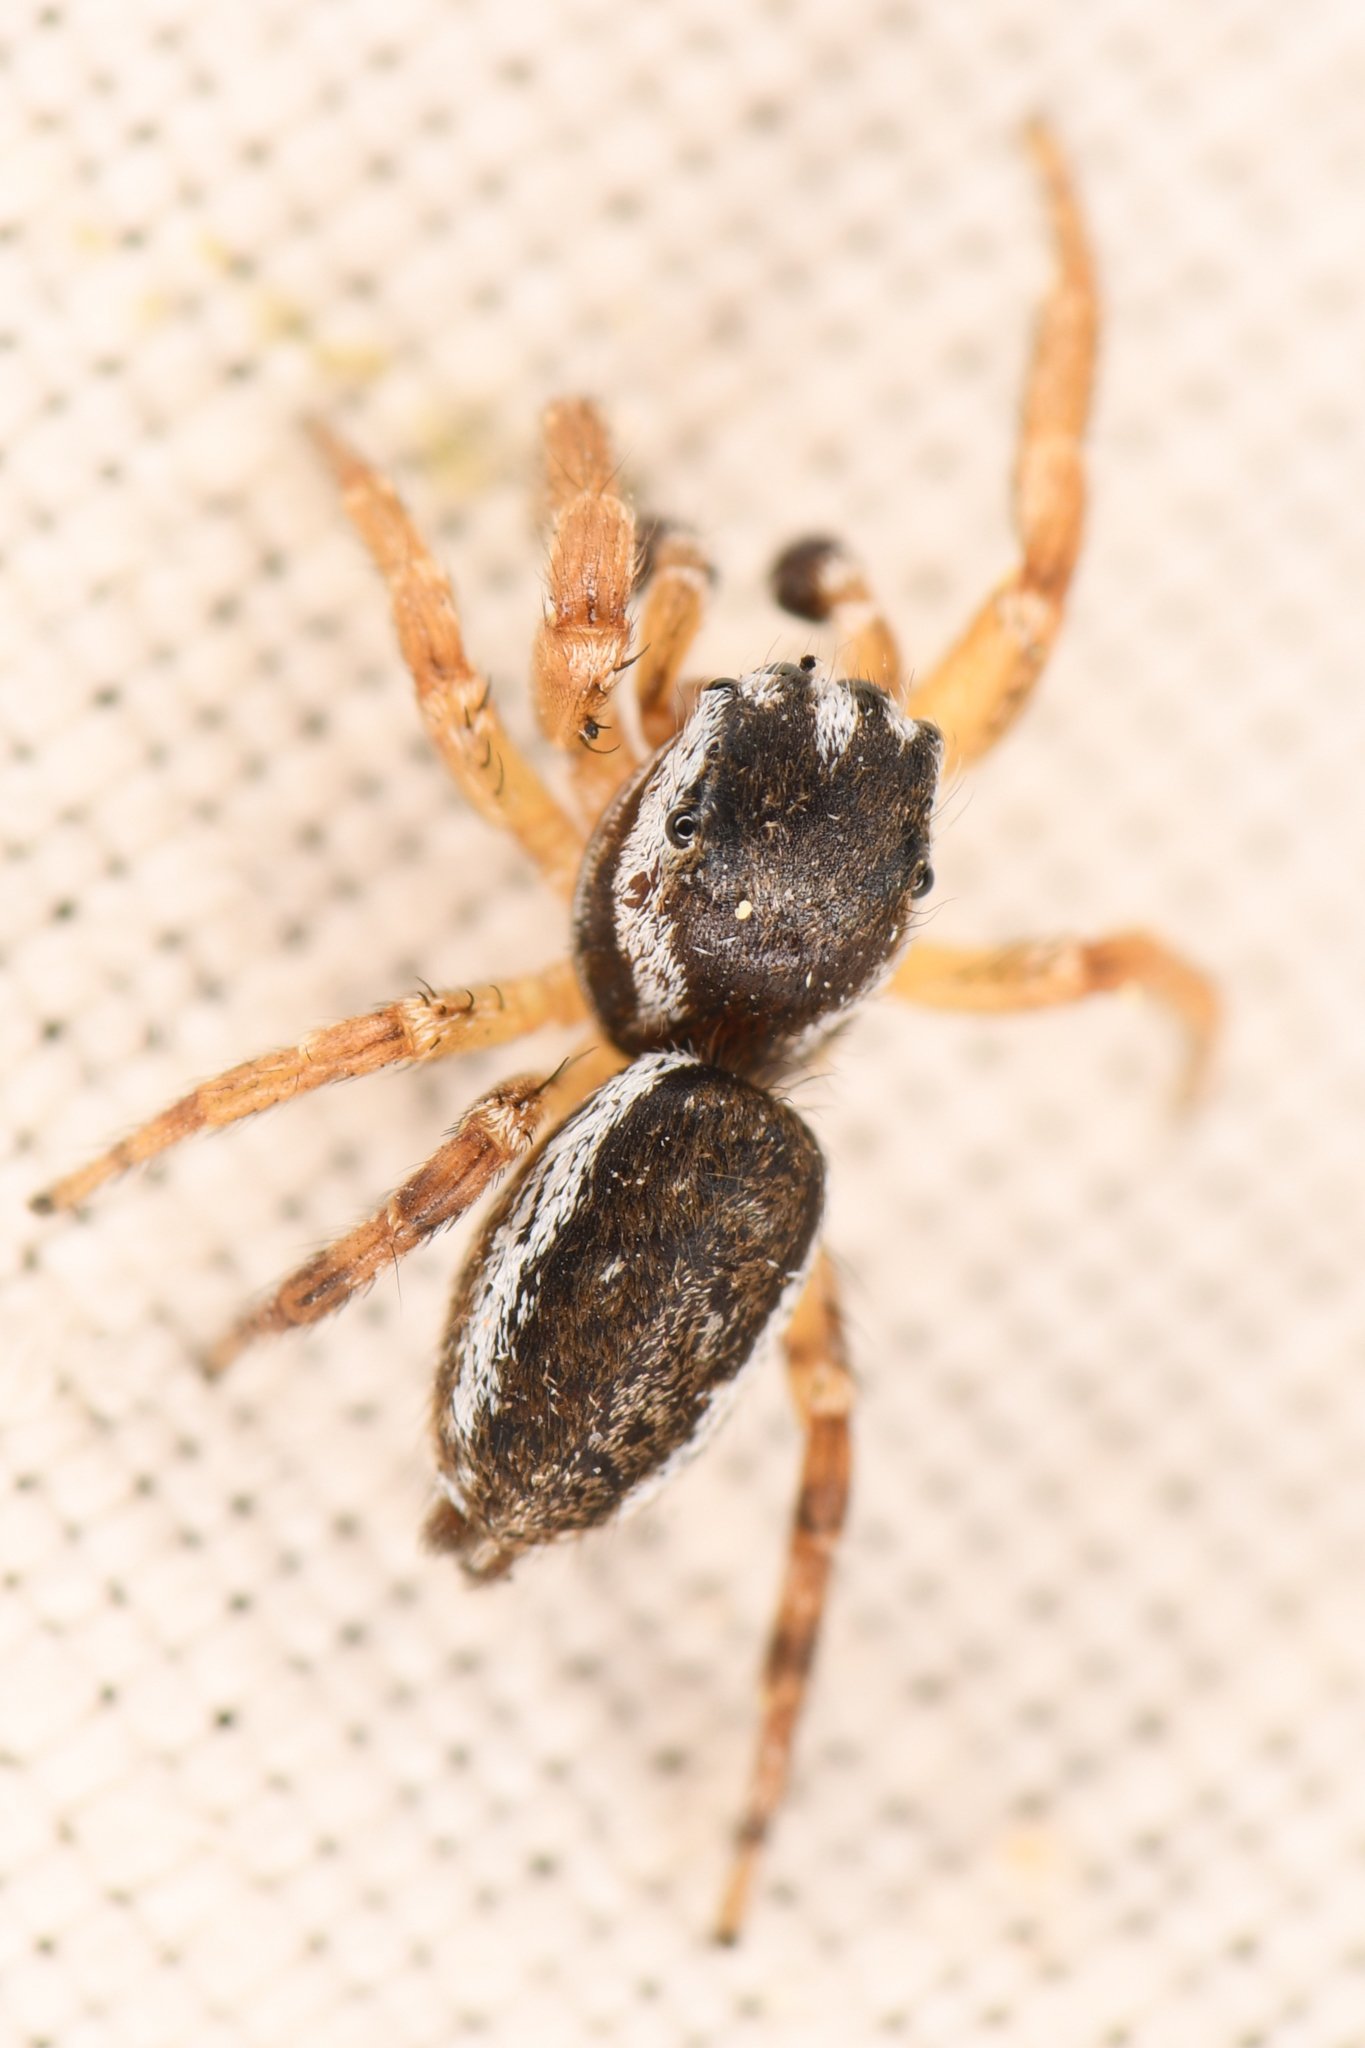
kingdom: Animalia
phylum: Arthropoda
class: Arachnida
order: Araneae
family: Salticidae
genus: Pelegrina
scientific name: Pelegrina flavipes
